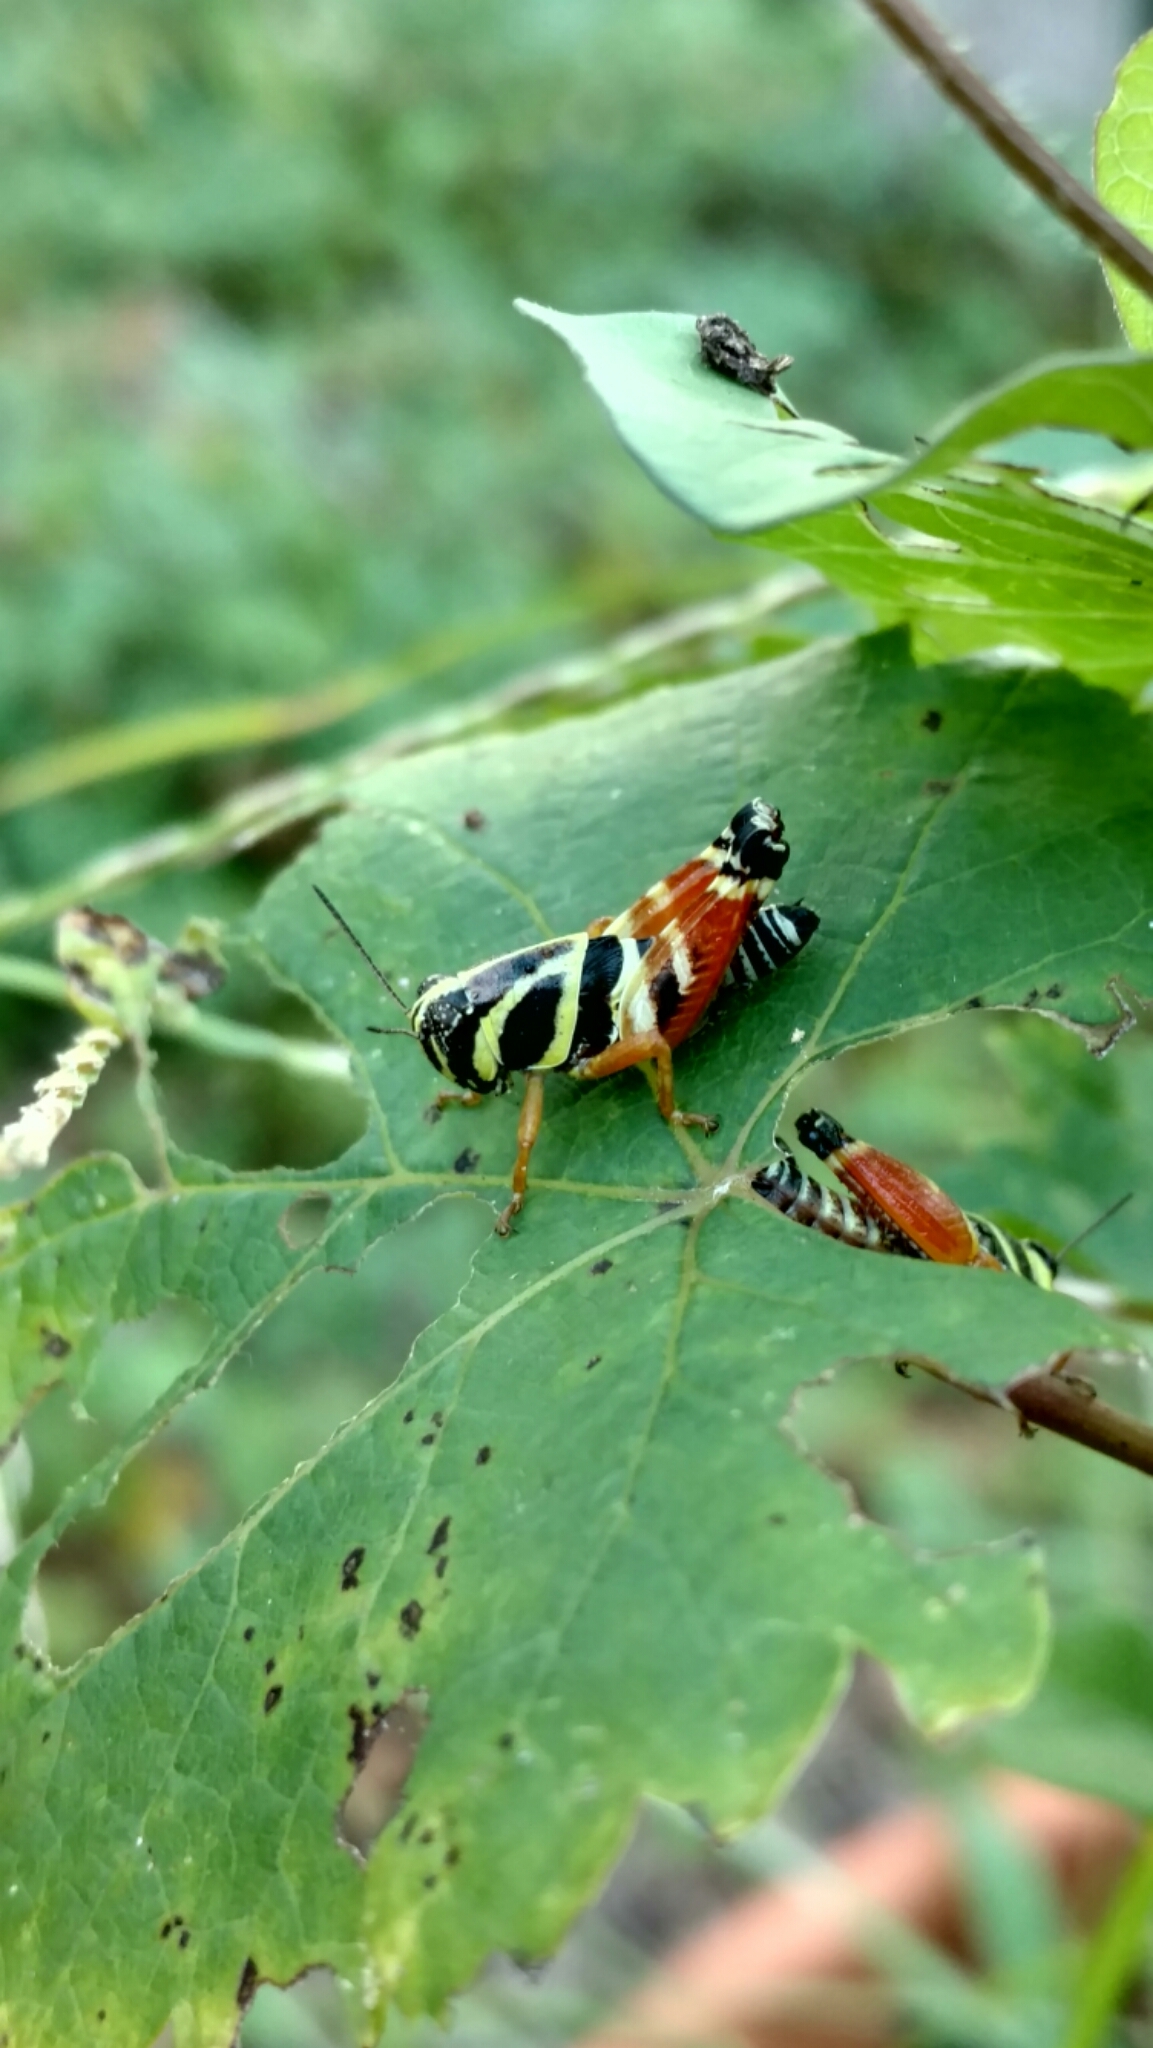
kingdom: Animalia
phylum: Arthropoda
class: Insecta
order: Orthoptera
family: Acrididae
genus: Aidemona
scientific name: Aidemona azteca
